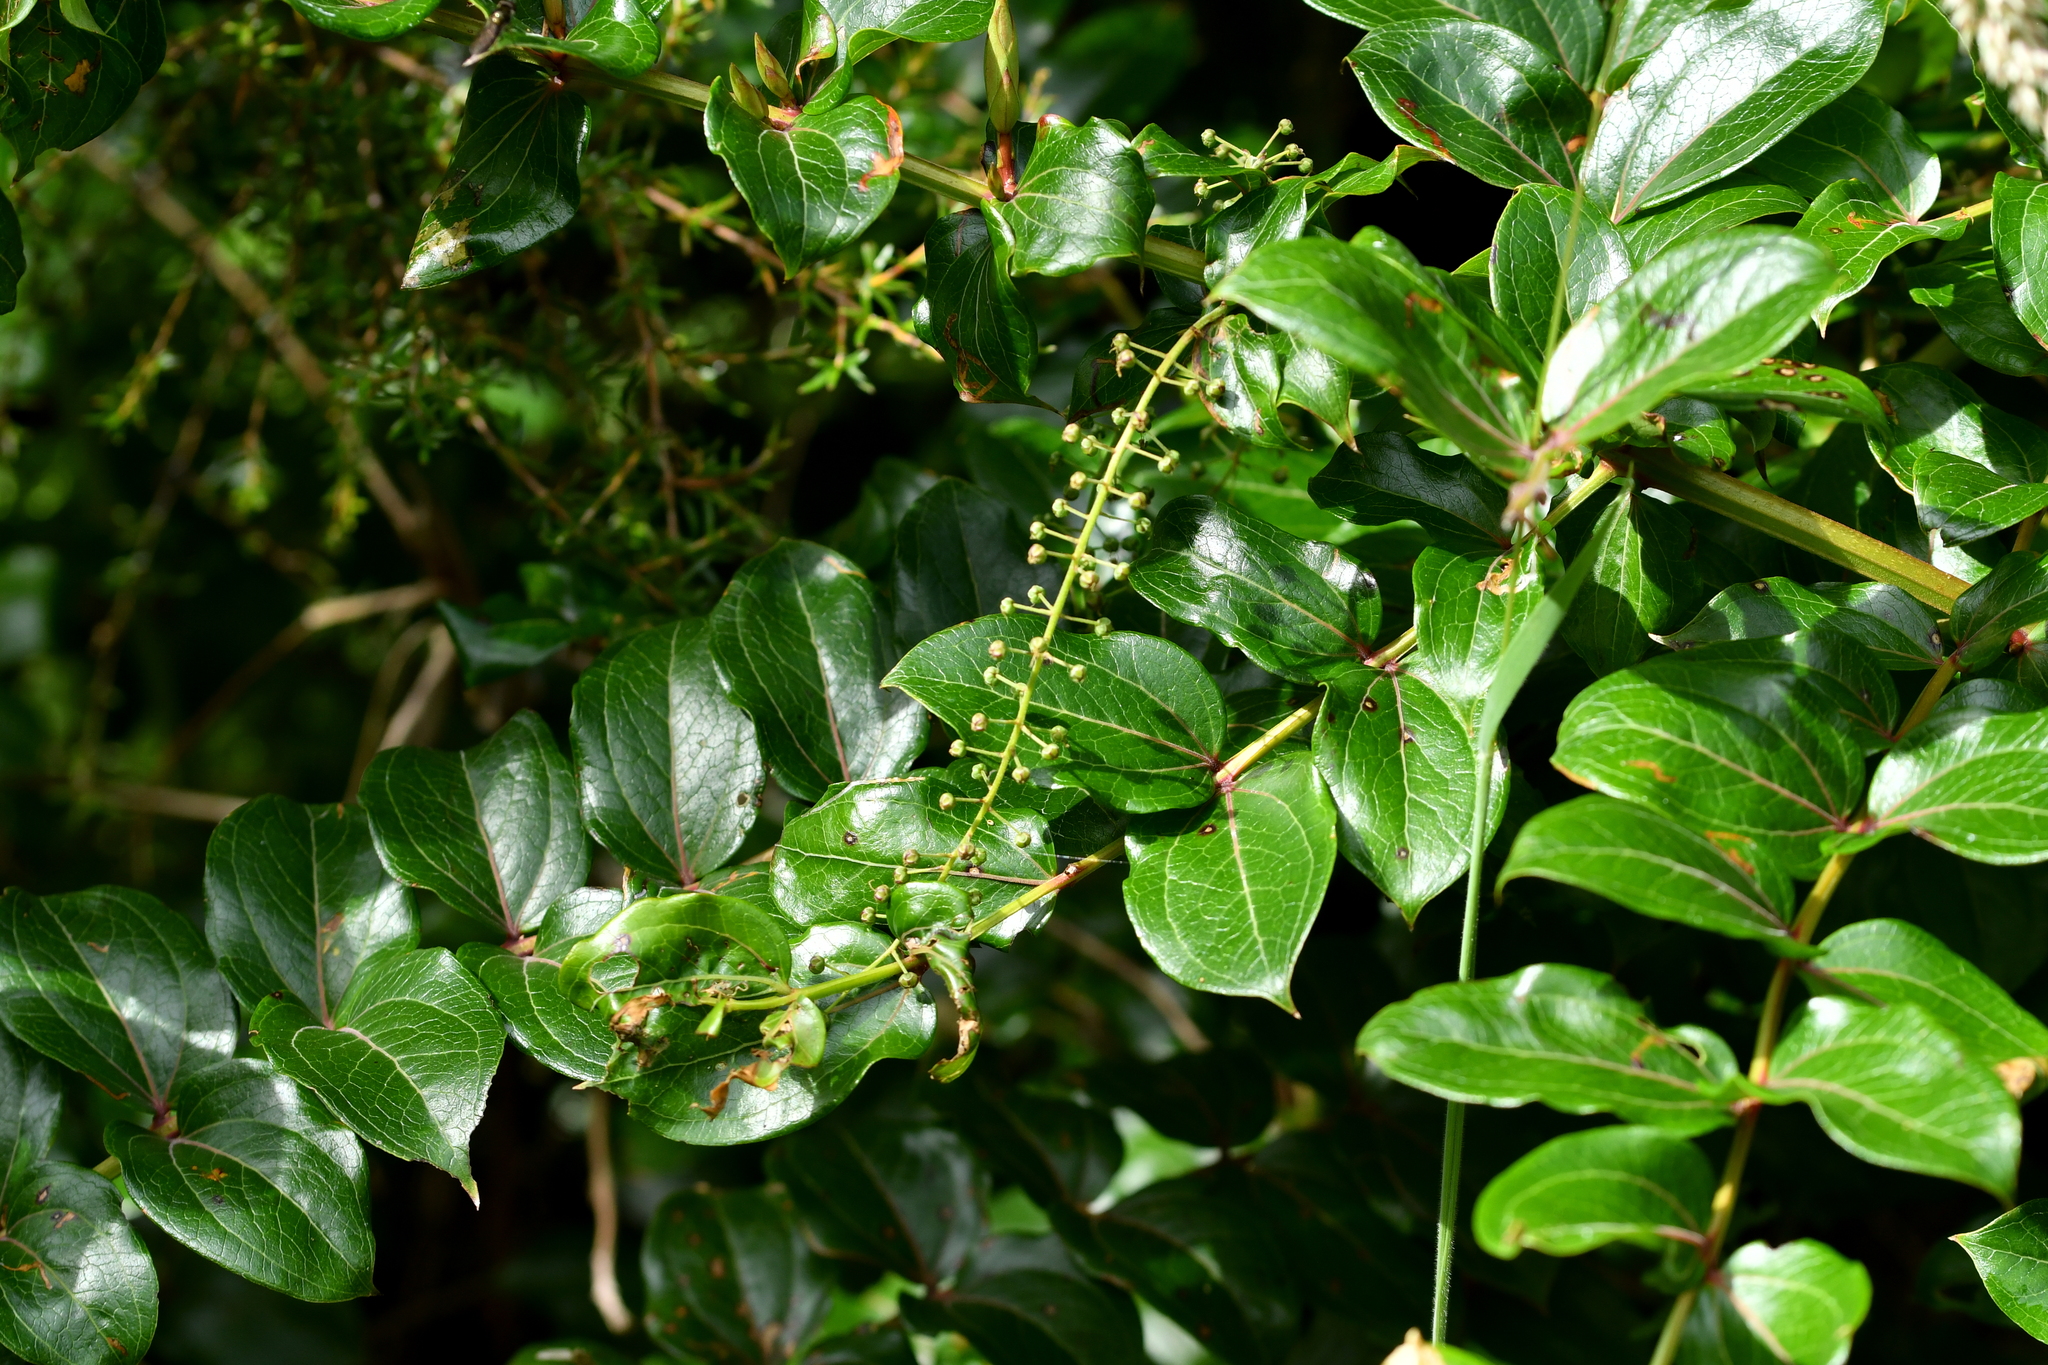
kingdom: Plantae
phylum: Tracheophyta
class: Magnoliopsida
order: Cucurbitales
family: Coriariaceae
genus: Coriaria
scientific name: Coriaria arborea
